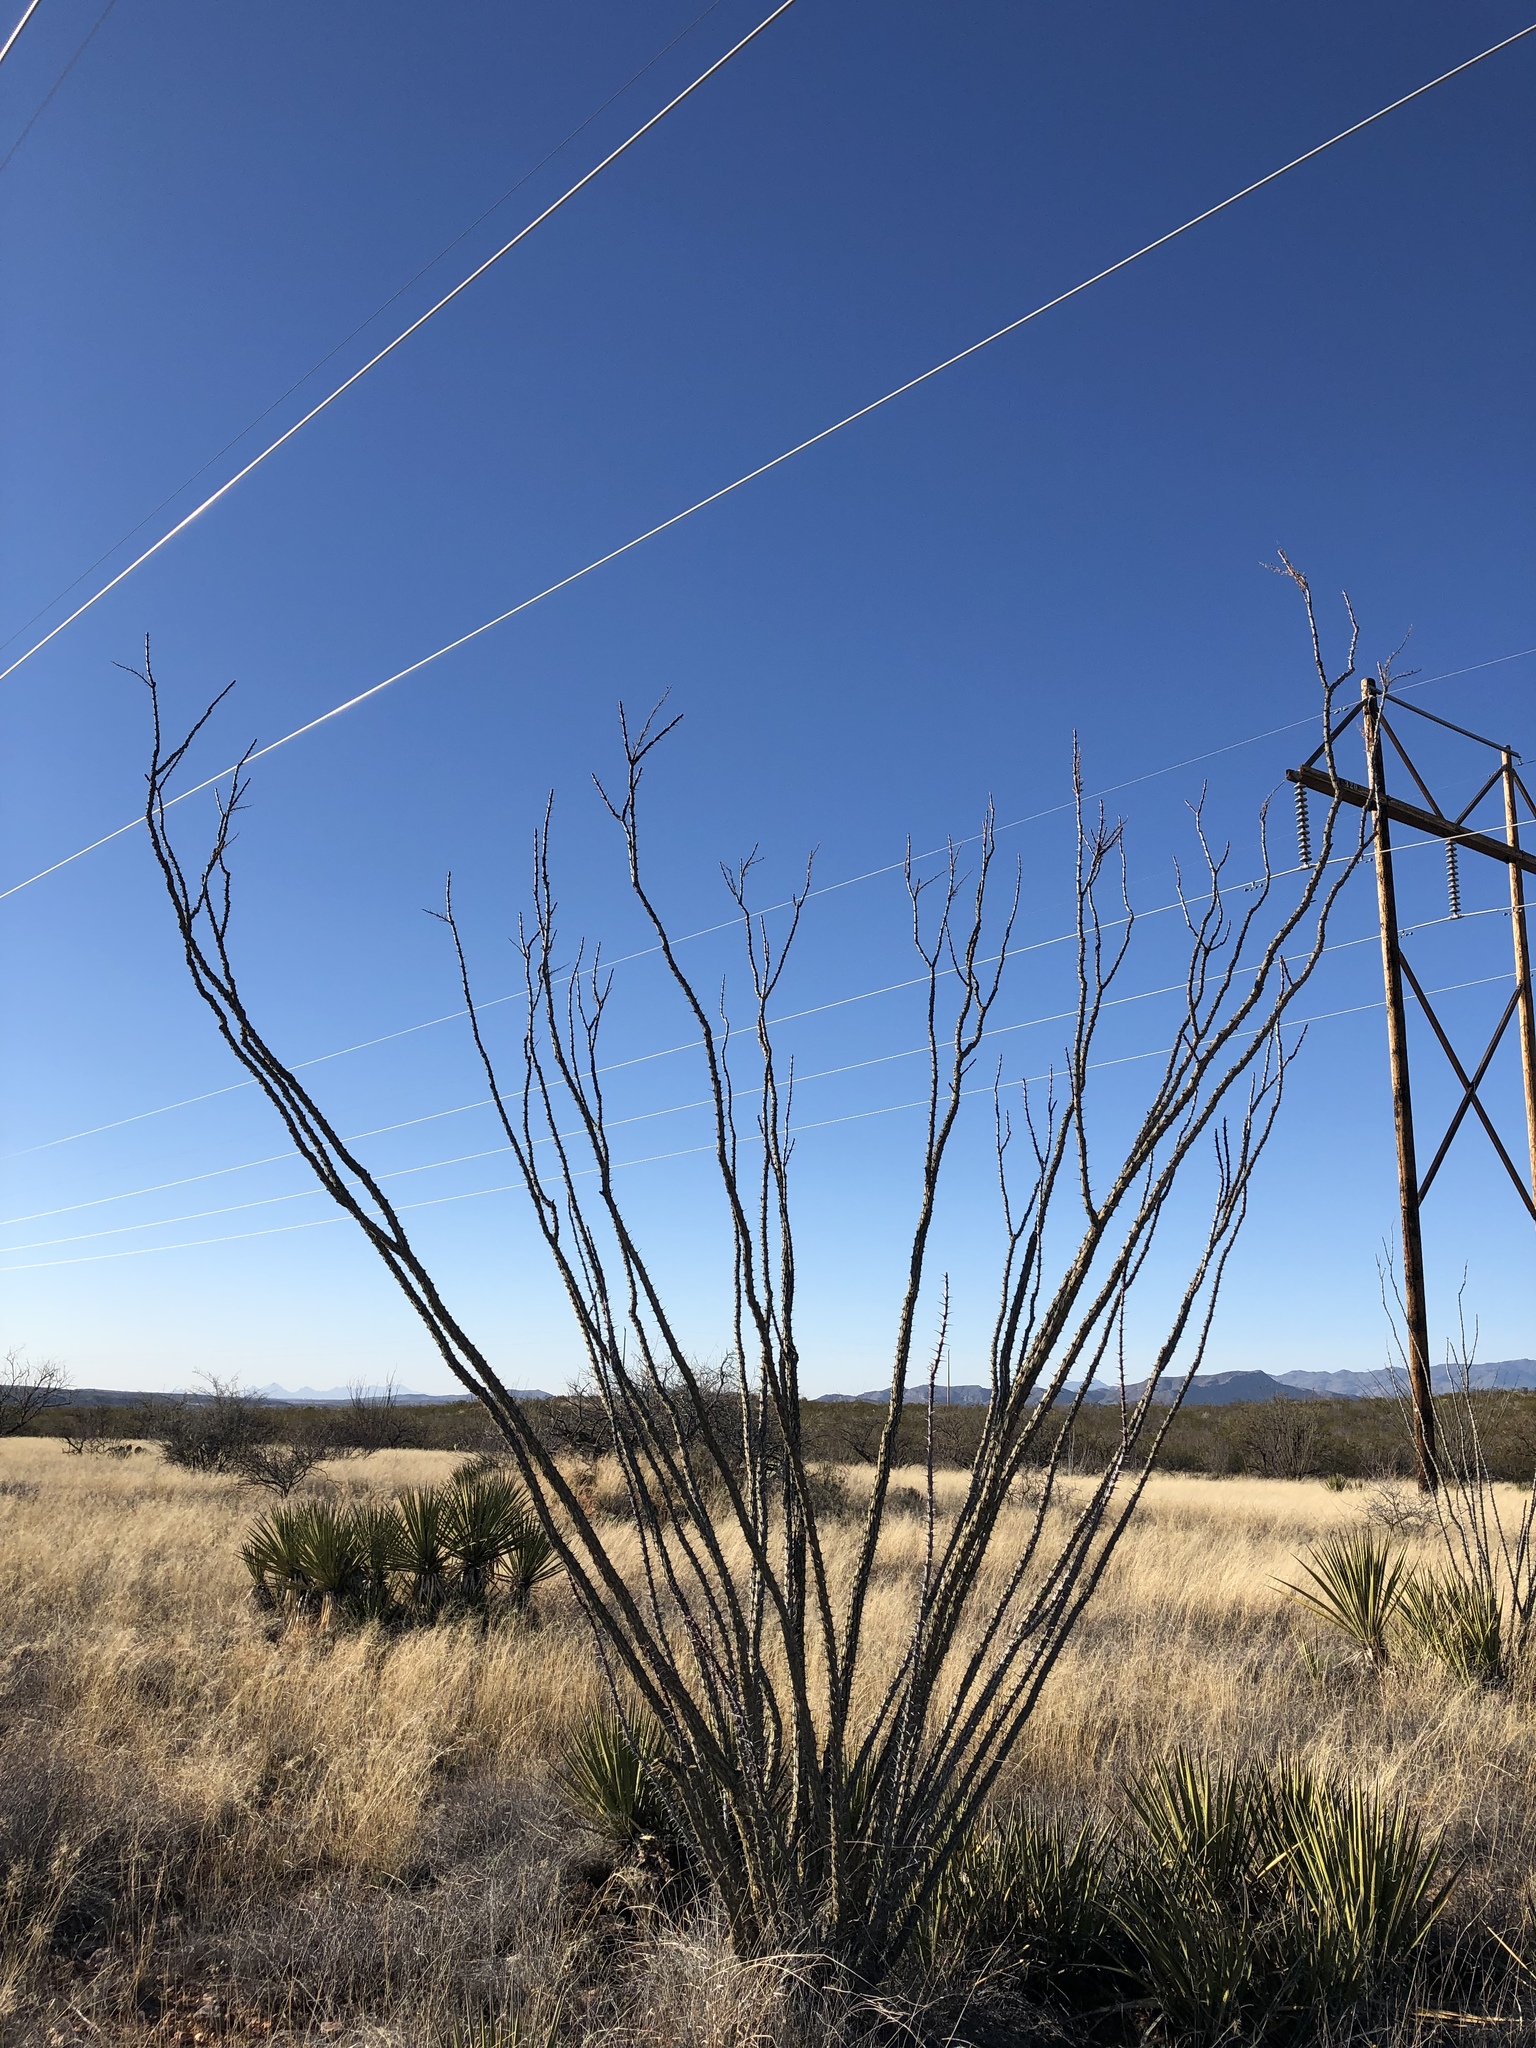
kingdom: Plantae
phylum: Tracheophyta
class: Magnoliopsida
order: Ericales
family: Fouquieriaceae
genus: Fouquieria
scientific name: Fouquieria splendens
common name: Vine-cactus
